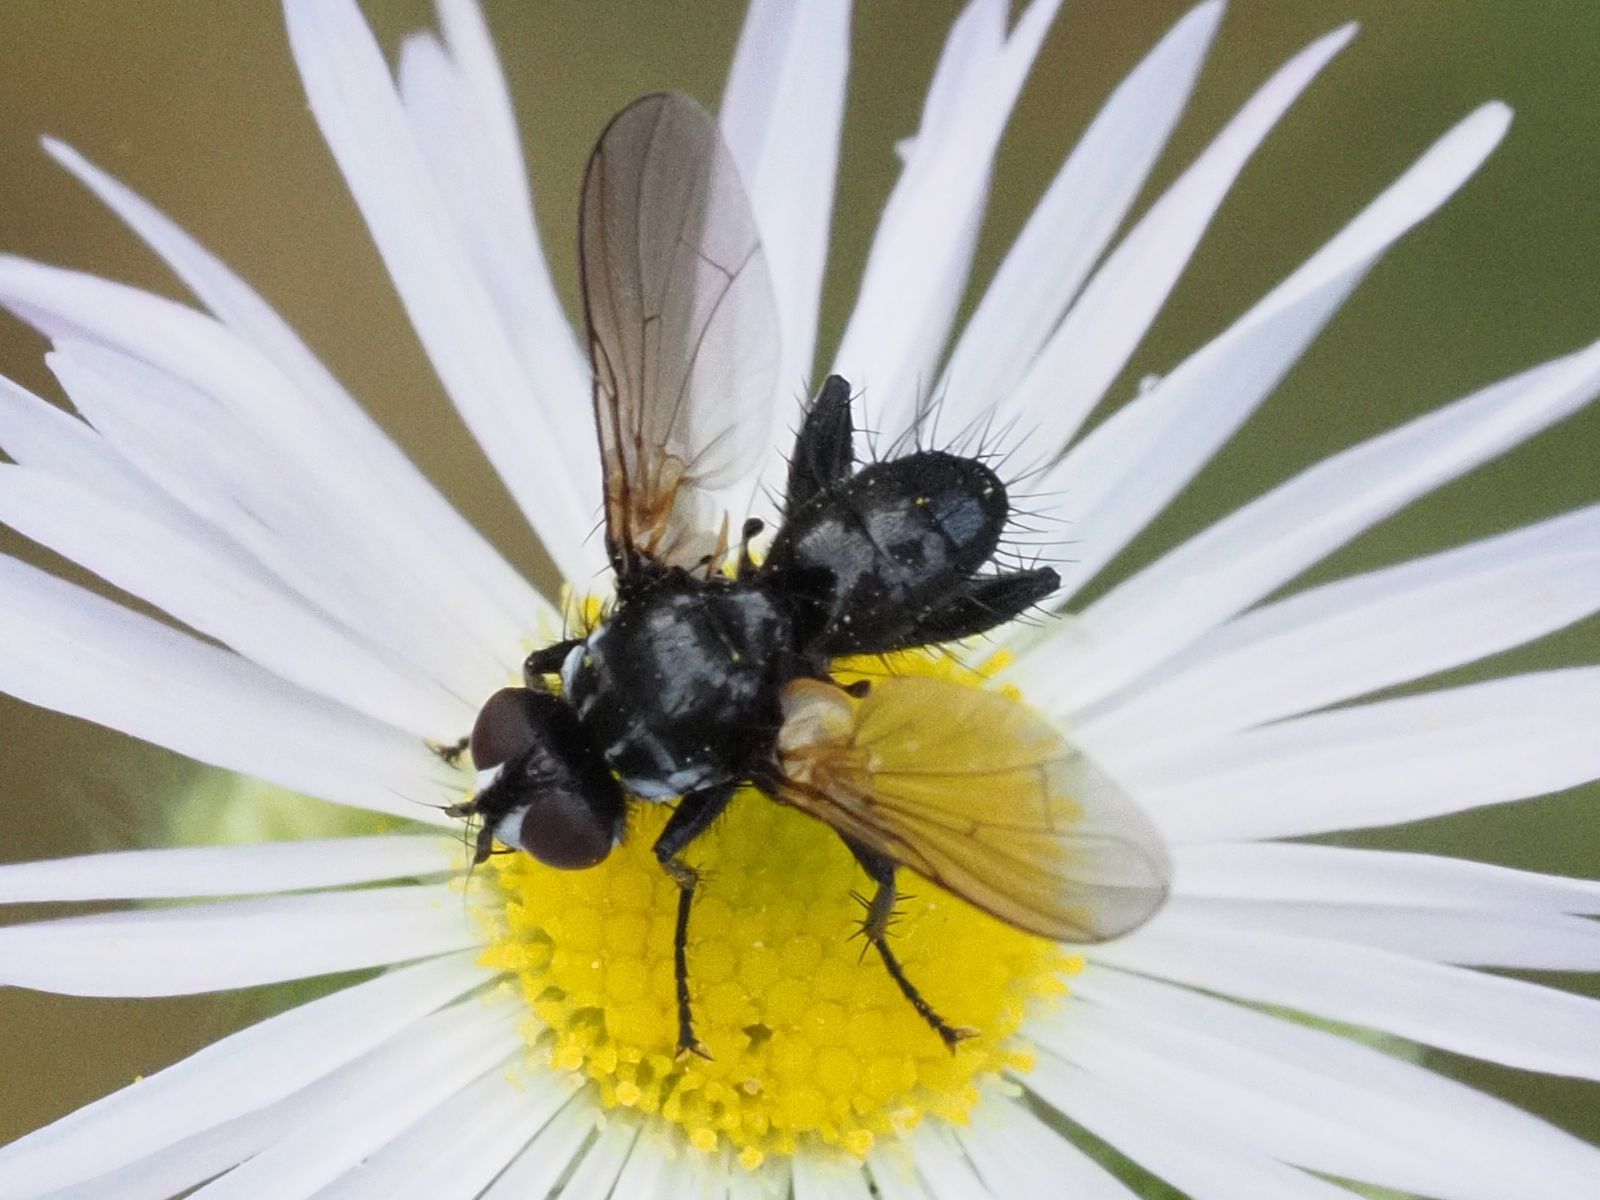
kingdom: Animalia
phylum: Arthropoda
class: Insecta
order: Diptera
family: Tachinidae
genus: Phania
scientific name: Phania funesta
